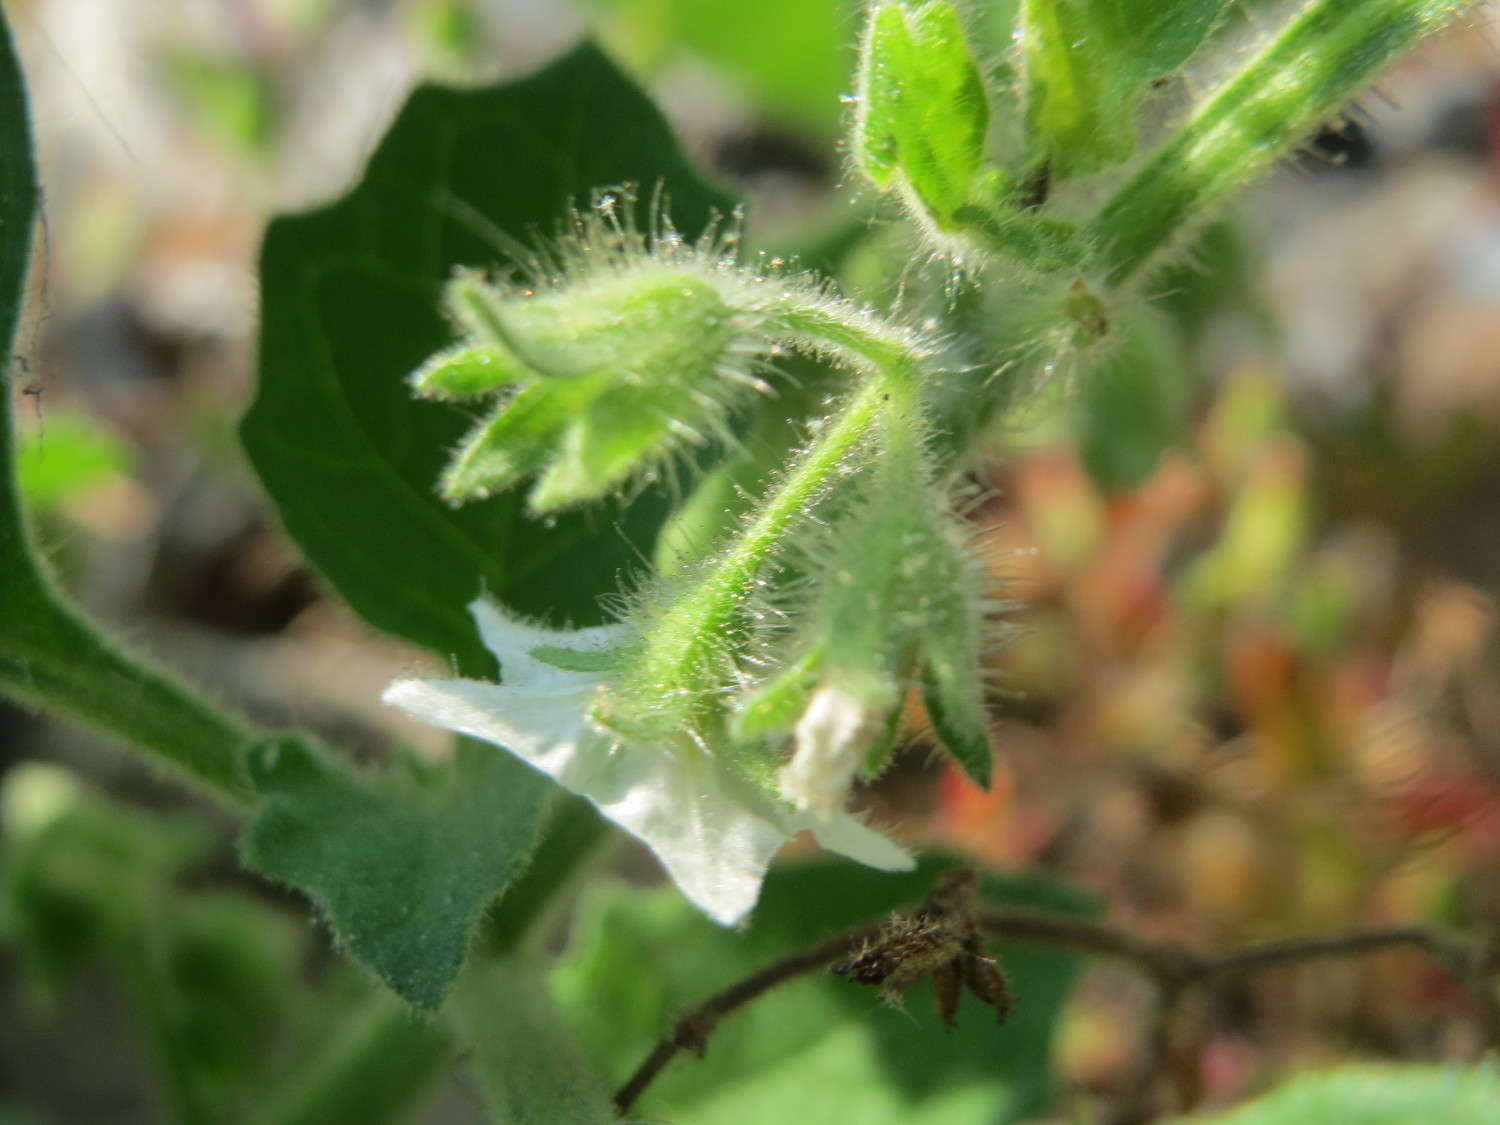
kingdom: Plantae
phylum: Tracheophyta
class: Magnoliopsida
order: Solanales
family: Solanaceae
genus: Solanum
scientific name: Solanum sarrachoides
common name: Leafy-fruited nightshade
